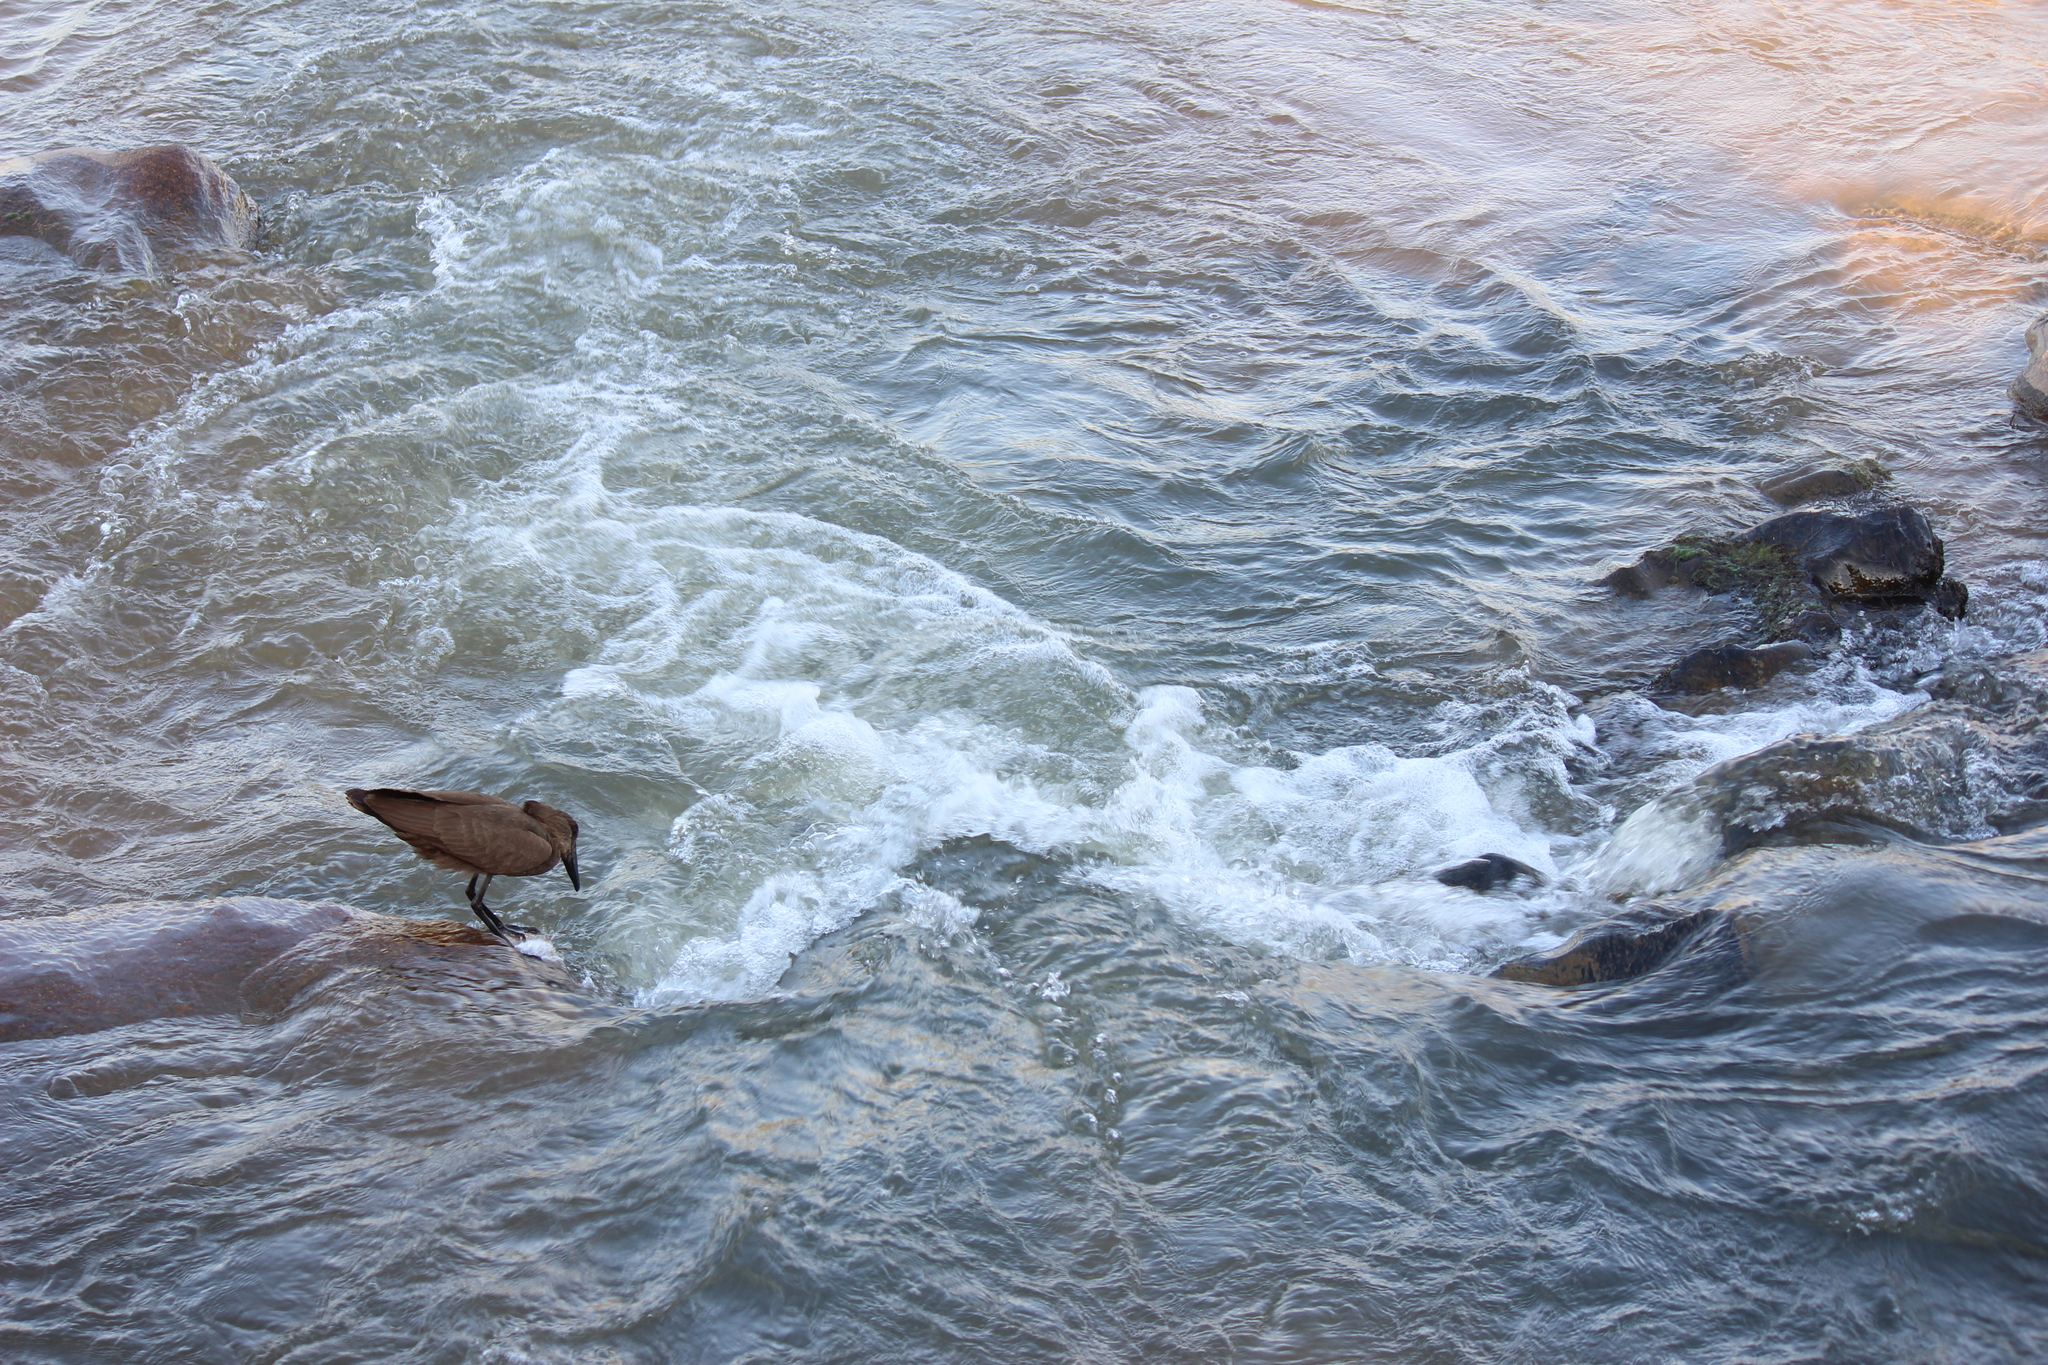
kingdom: Animalia
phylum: Chordata
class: Aves
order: Pelecaniformes
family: Scopidae
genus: Scopus
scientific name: Scopus umbretta
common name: Hamerkop
